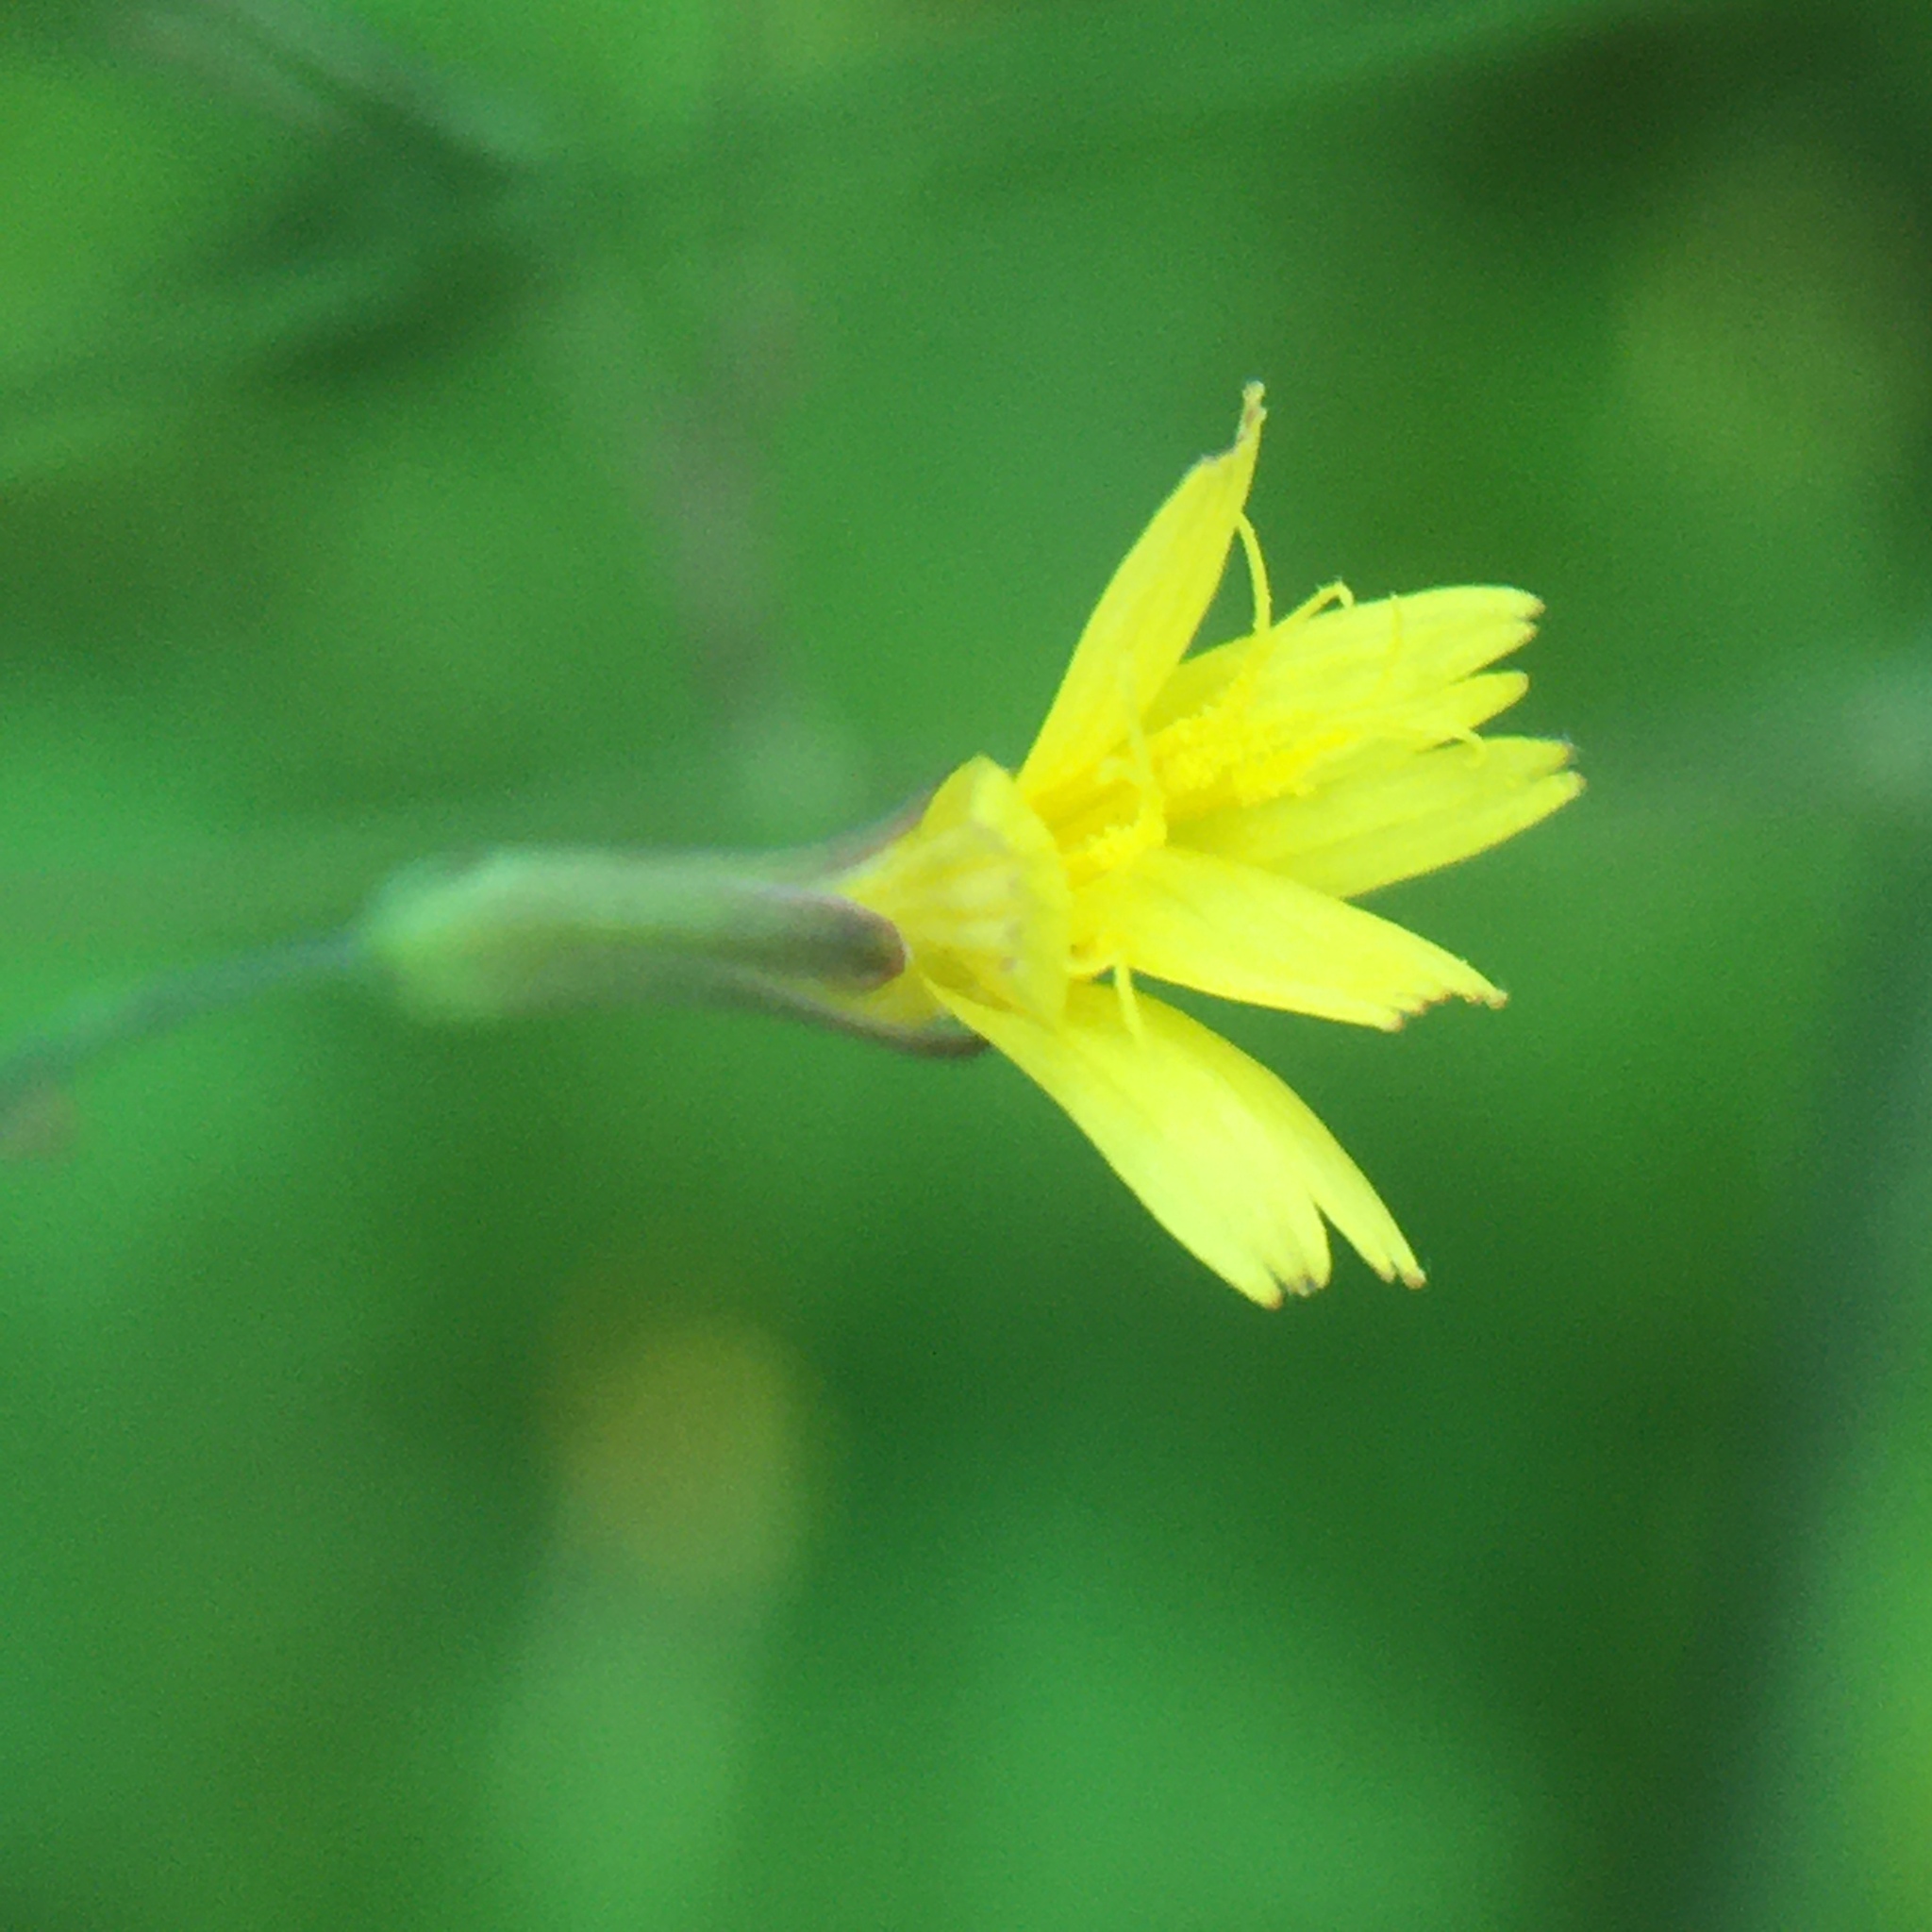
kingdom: Plantae
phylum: Tracheophyta
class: Magnoliopsida
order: Asterales
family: Asteraceae
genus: Mycelis
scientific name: Mycelis muralis
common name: Wall lettuce
